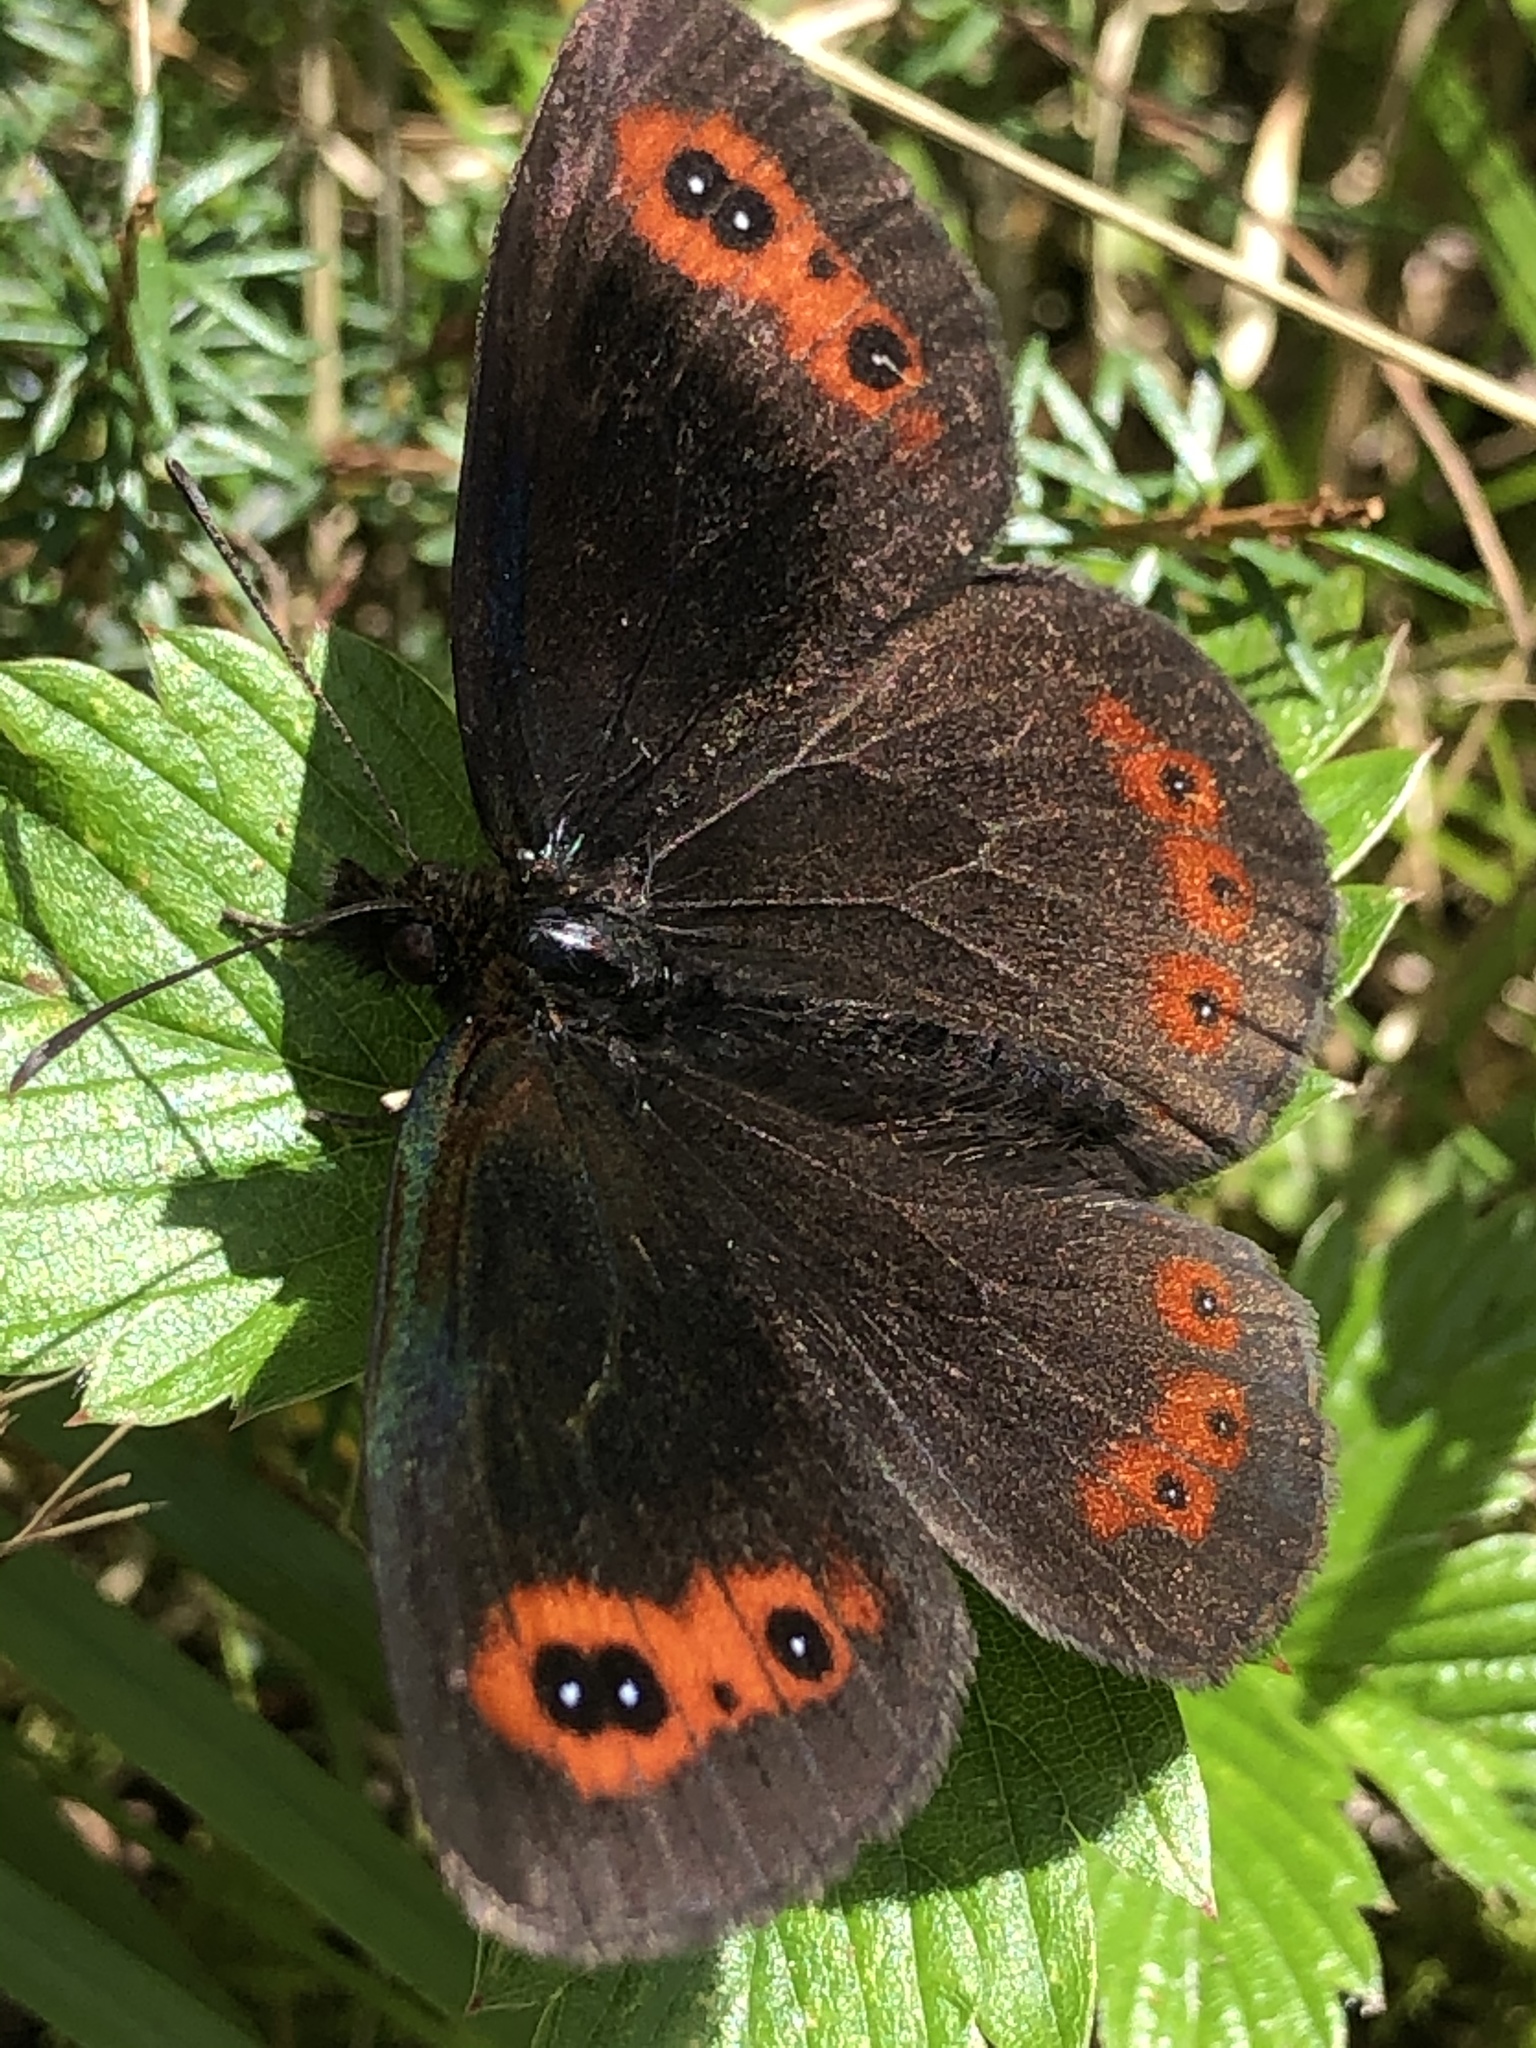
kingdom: Animalia
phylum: Arthropoda
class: Insecta
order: Lepidoptera
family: Nymphalidae
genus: Erebia
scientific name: Erebia aethiops
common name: Scotch argus
